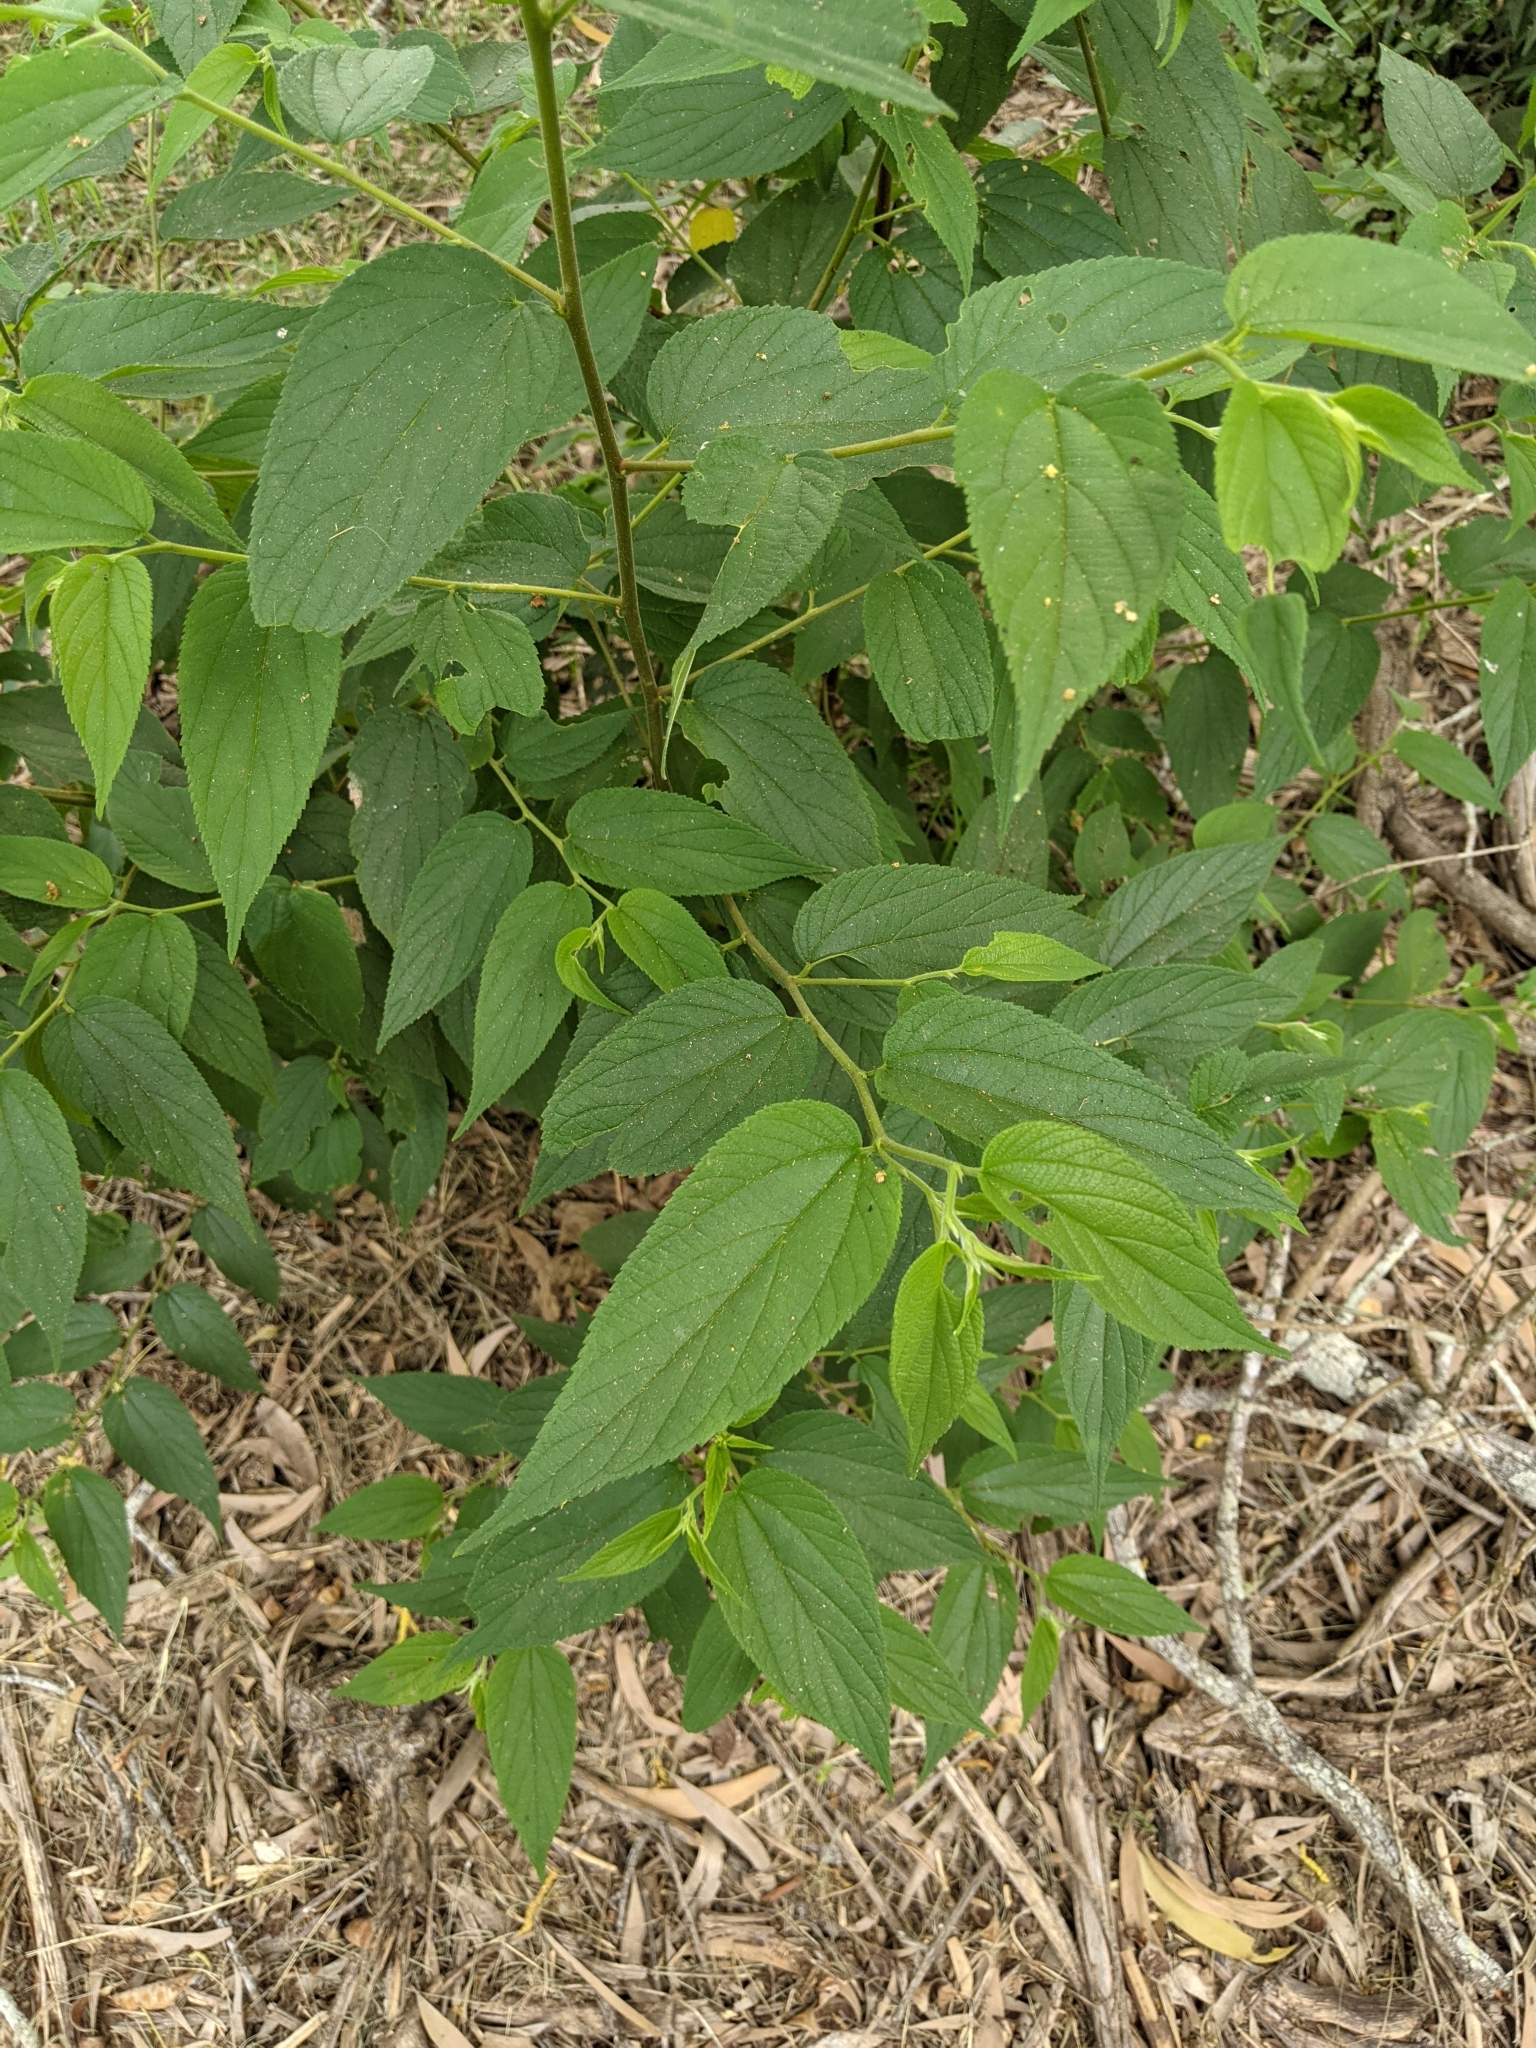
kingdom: Plantae
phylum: Tracheophyta
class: Magnoliopsida
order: Rosales
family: Cannabaceae
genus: Trema
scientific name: Trema tomentosum
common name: Peach-leaf-poisonbush
